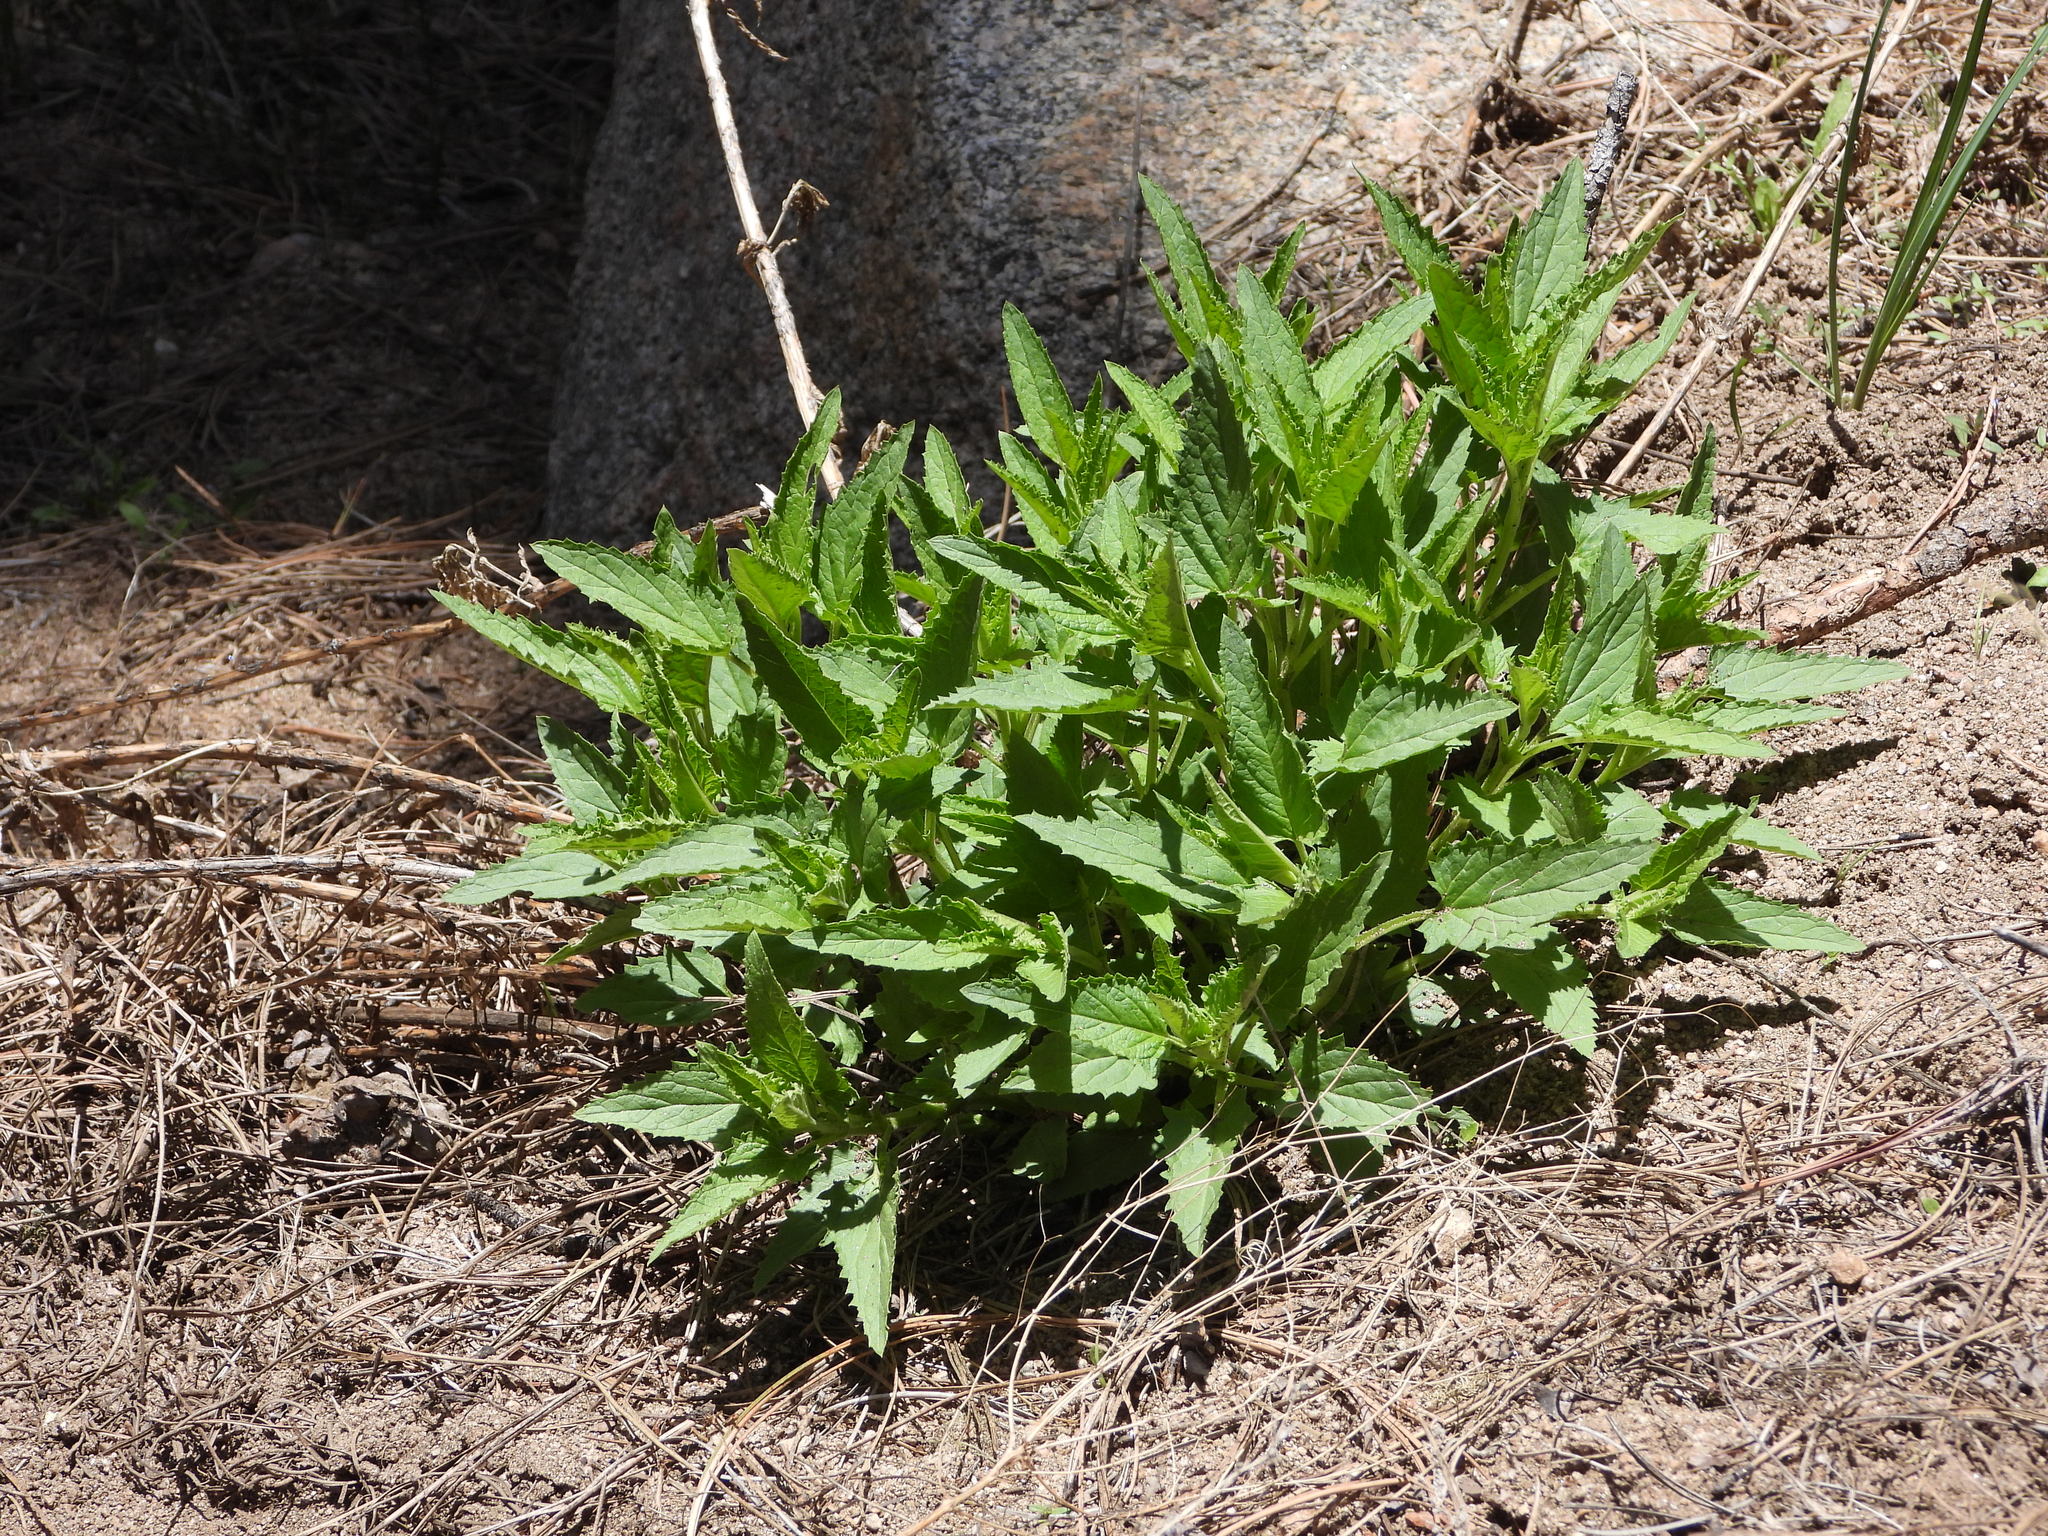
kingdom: Plantae
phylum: Tracheophyta
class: Magnoliopsida
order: Rosales
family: Urticaceae
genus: Urtica
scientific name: Urtica dioica
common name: Common nettle
